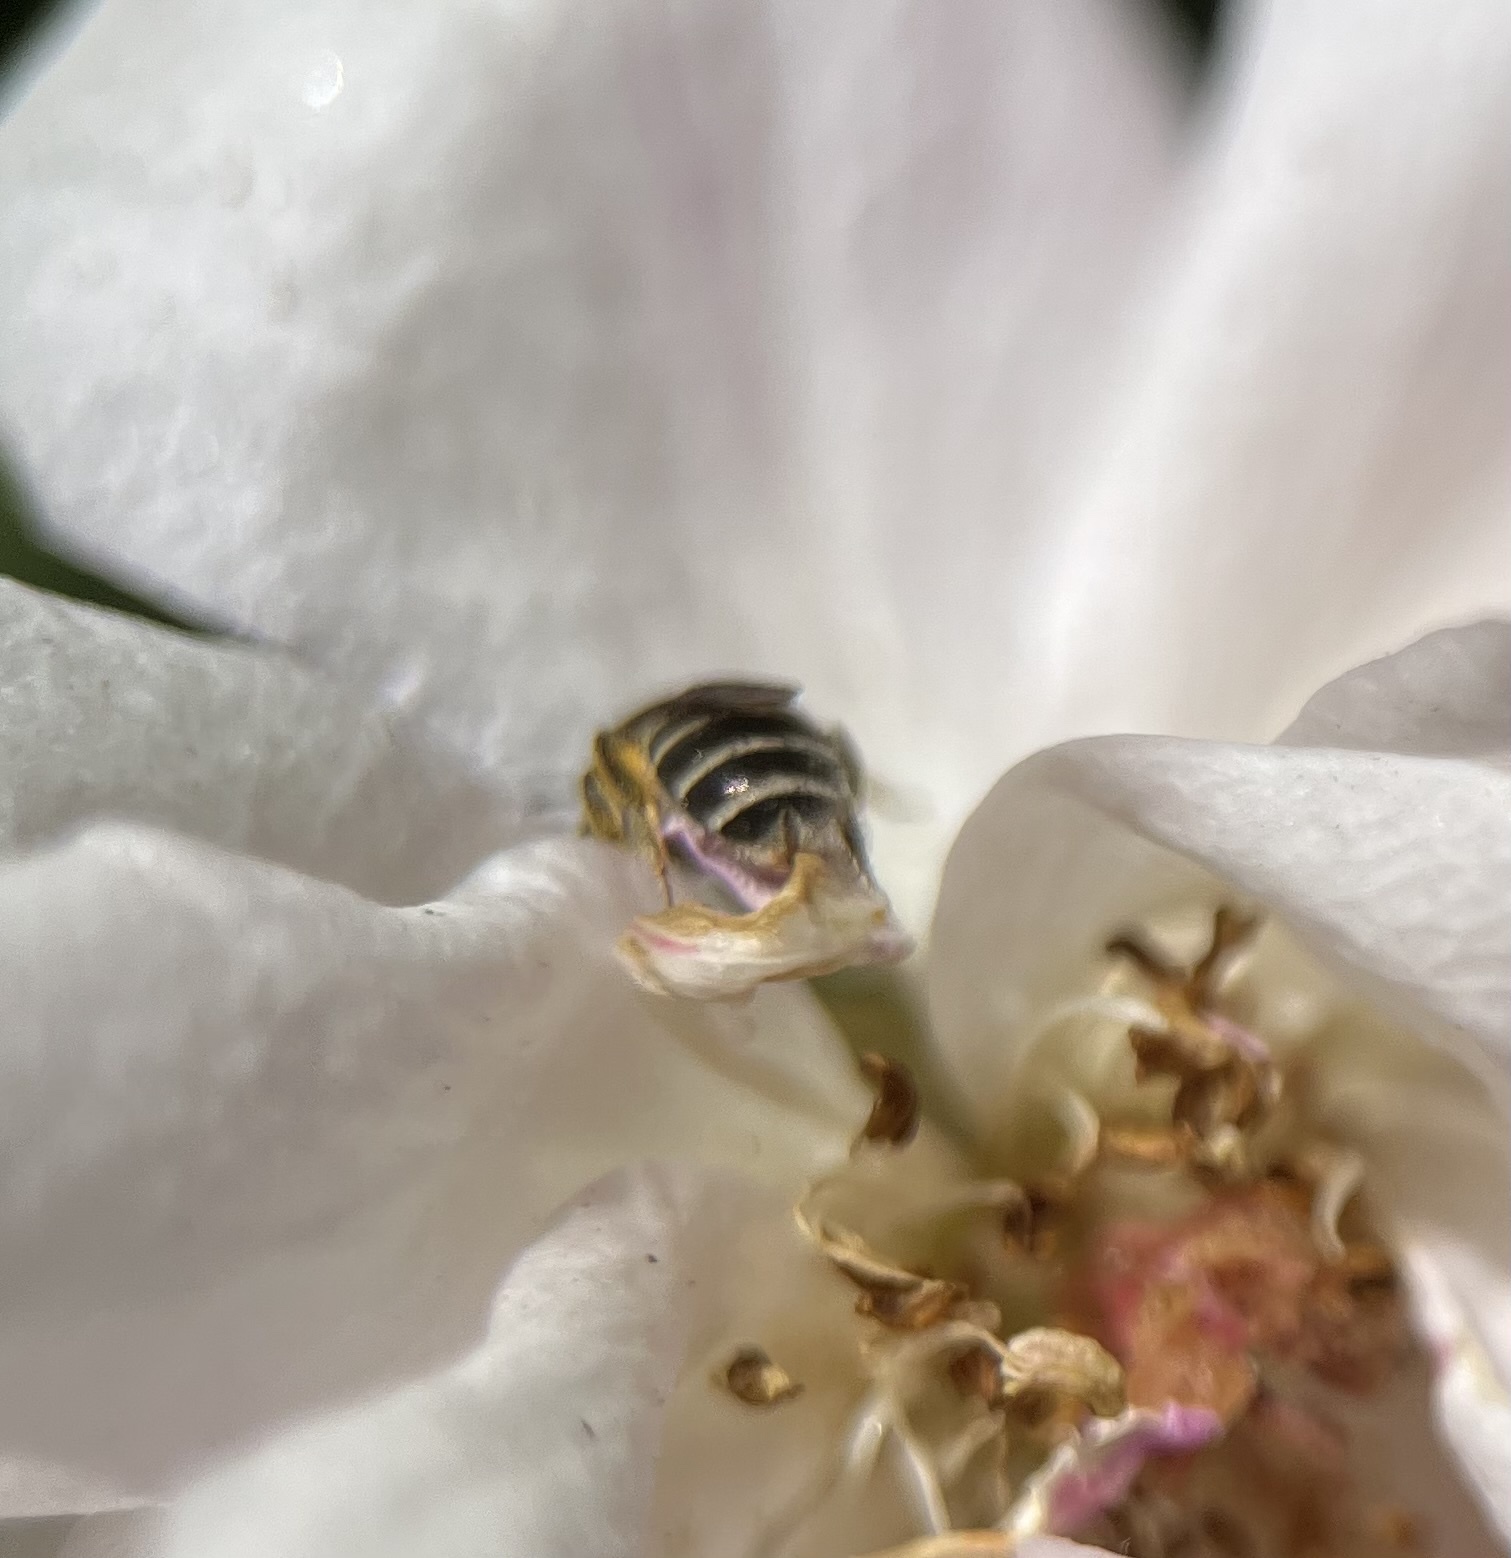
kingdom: Animalia
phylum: Arthropoda
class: Insecta
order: Hymenoptera
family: Halictidae
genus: Halictus
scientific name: Halictus tripartitus
